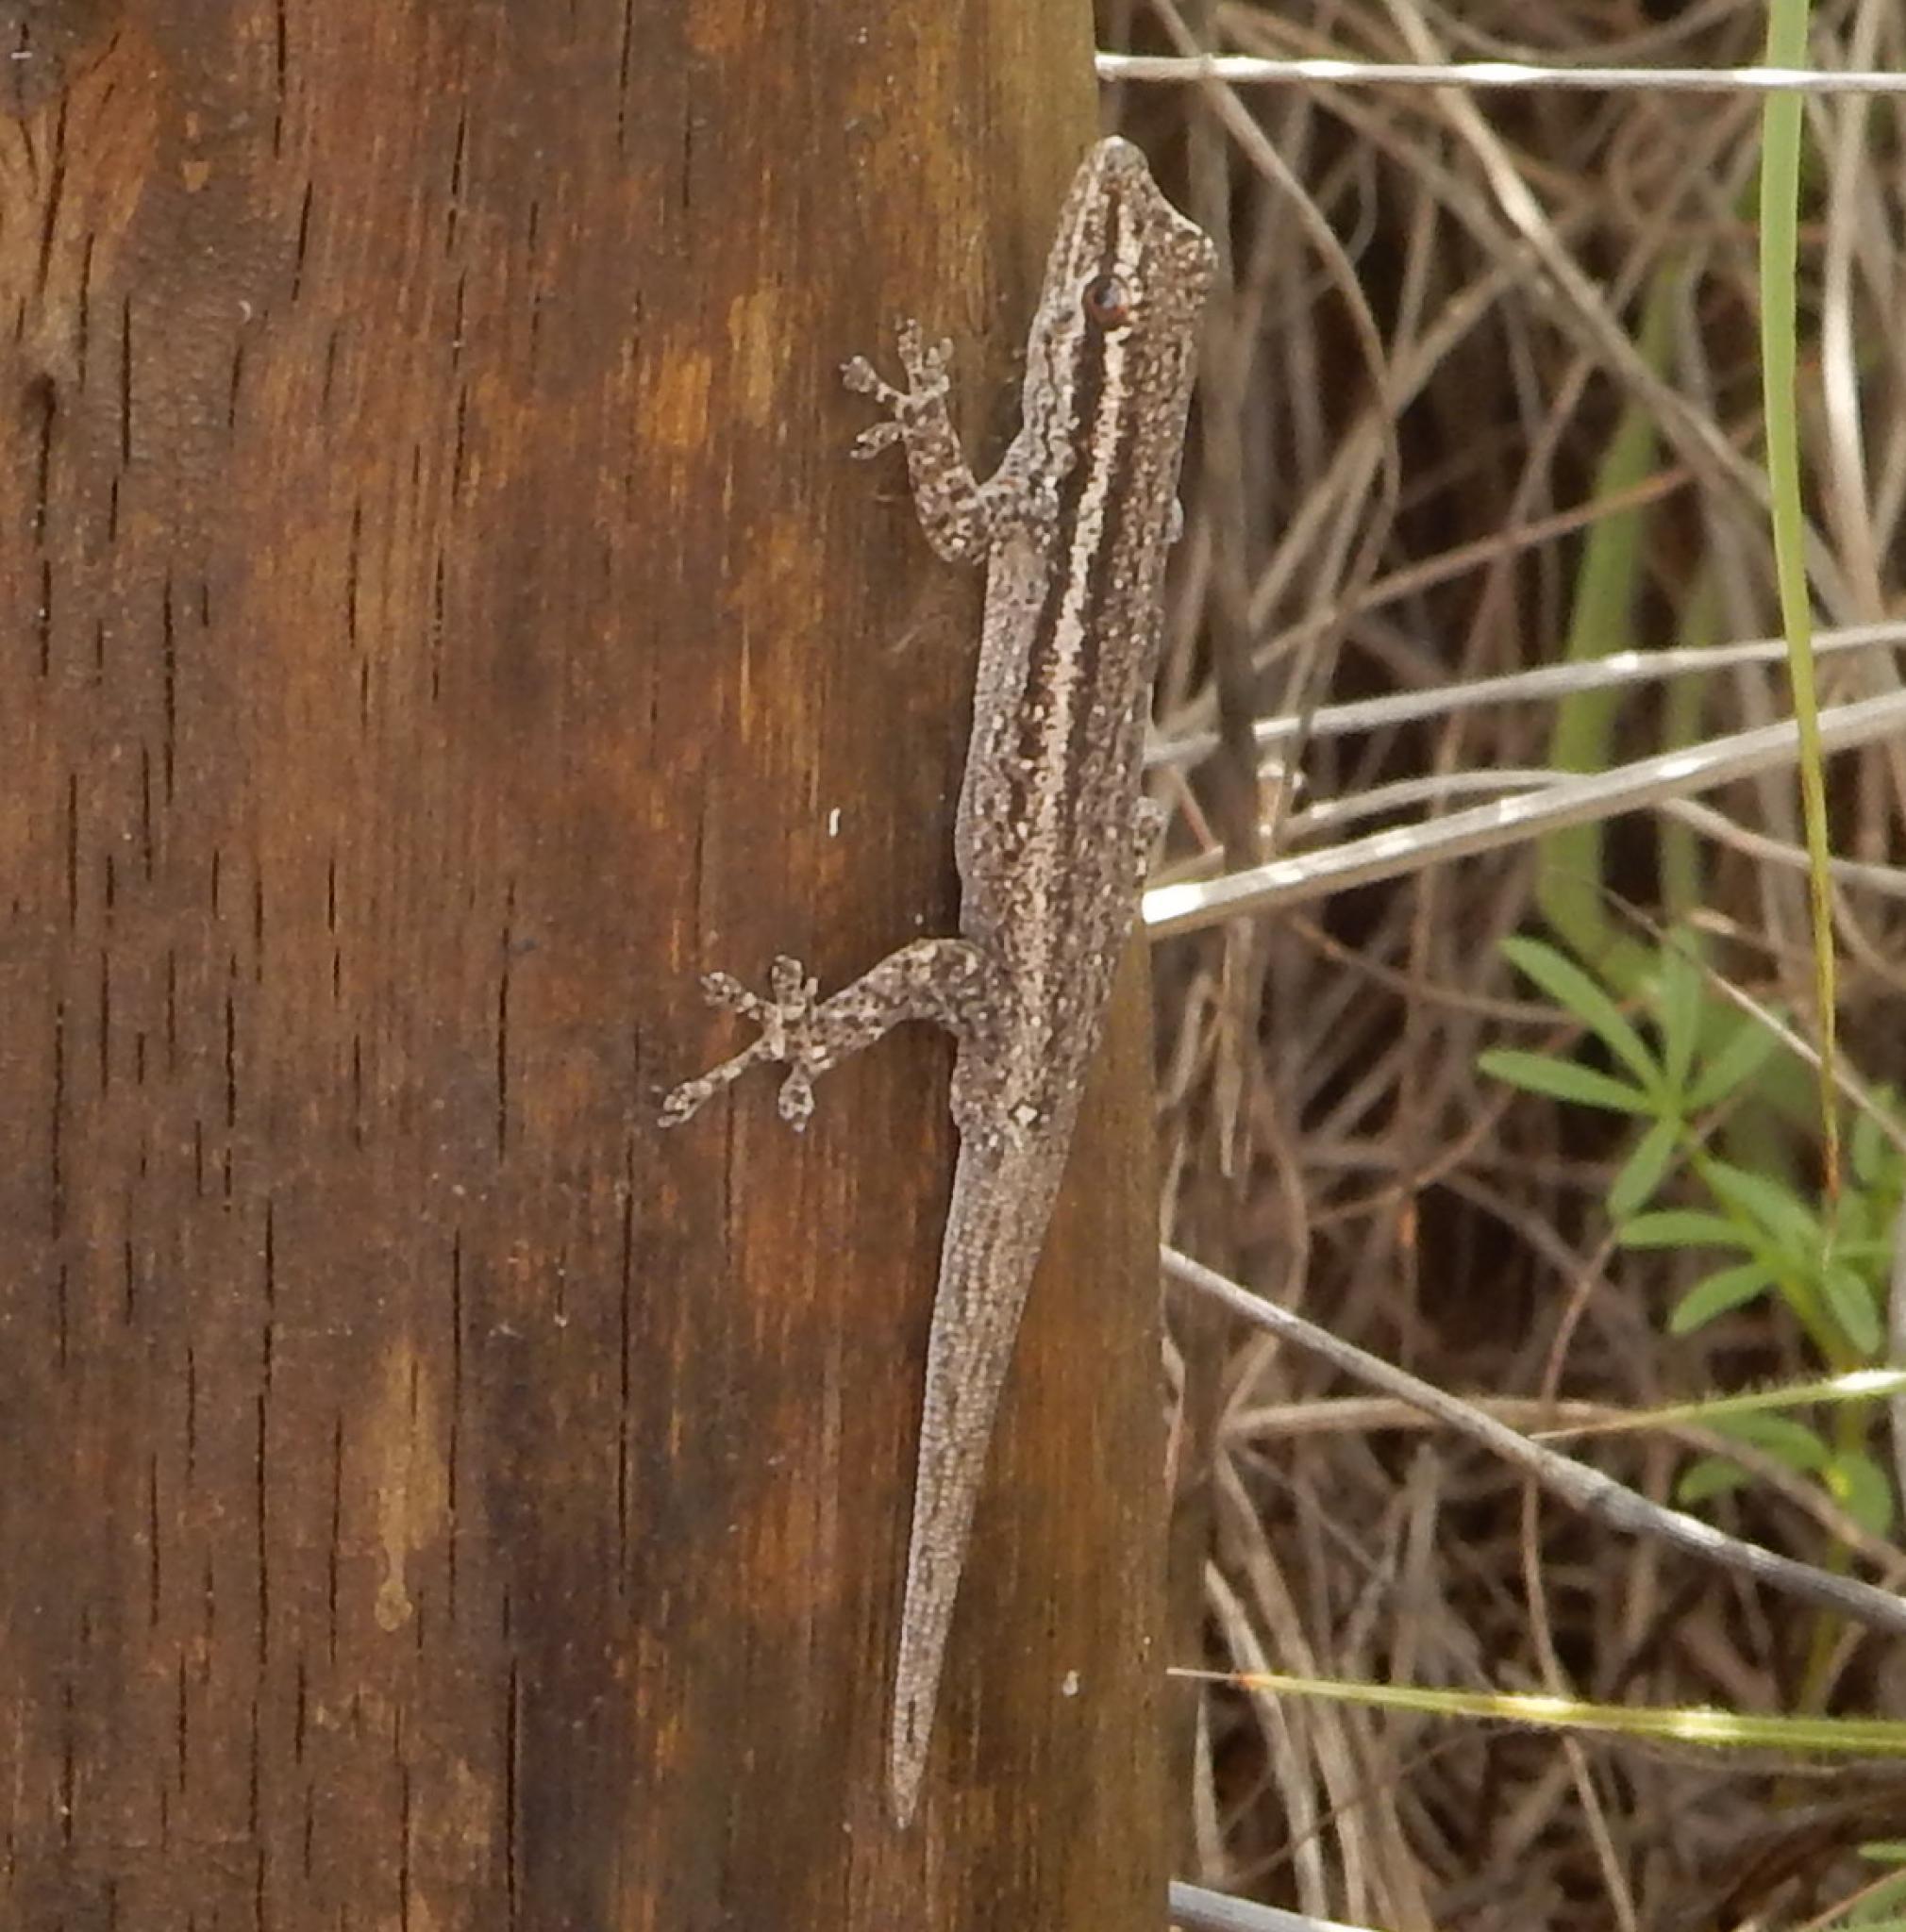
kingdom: Animalia
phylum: Chordata
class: Squamata
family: Gekkonidae
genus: Lygodactylus
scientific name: Lygodactylus capensis
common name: Cape dwarf gecko
